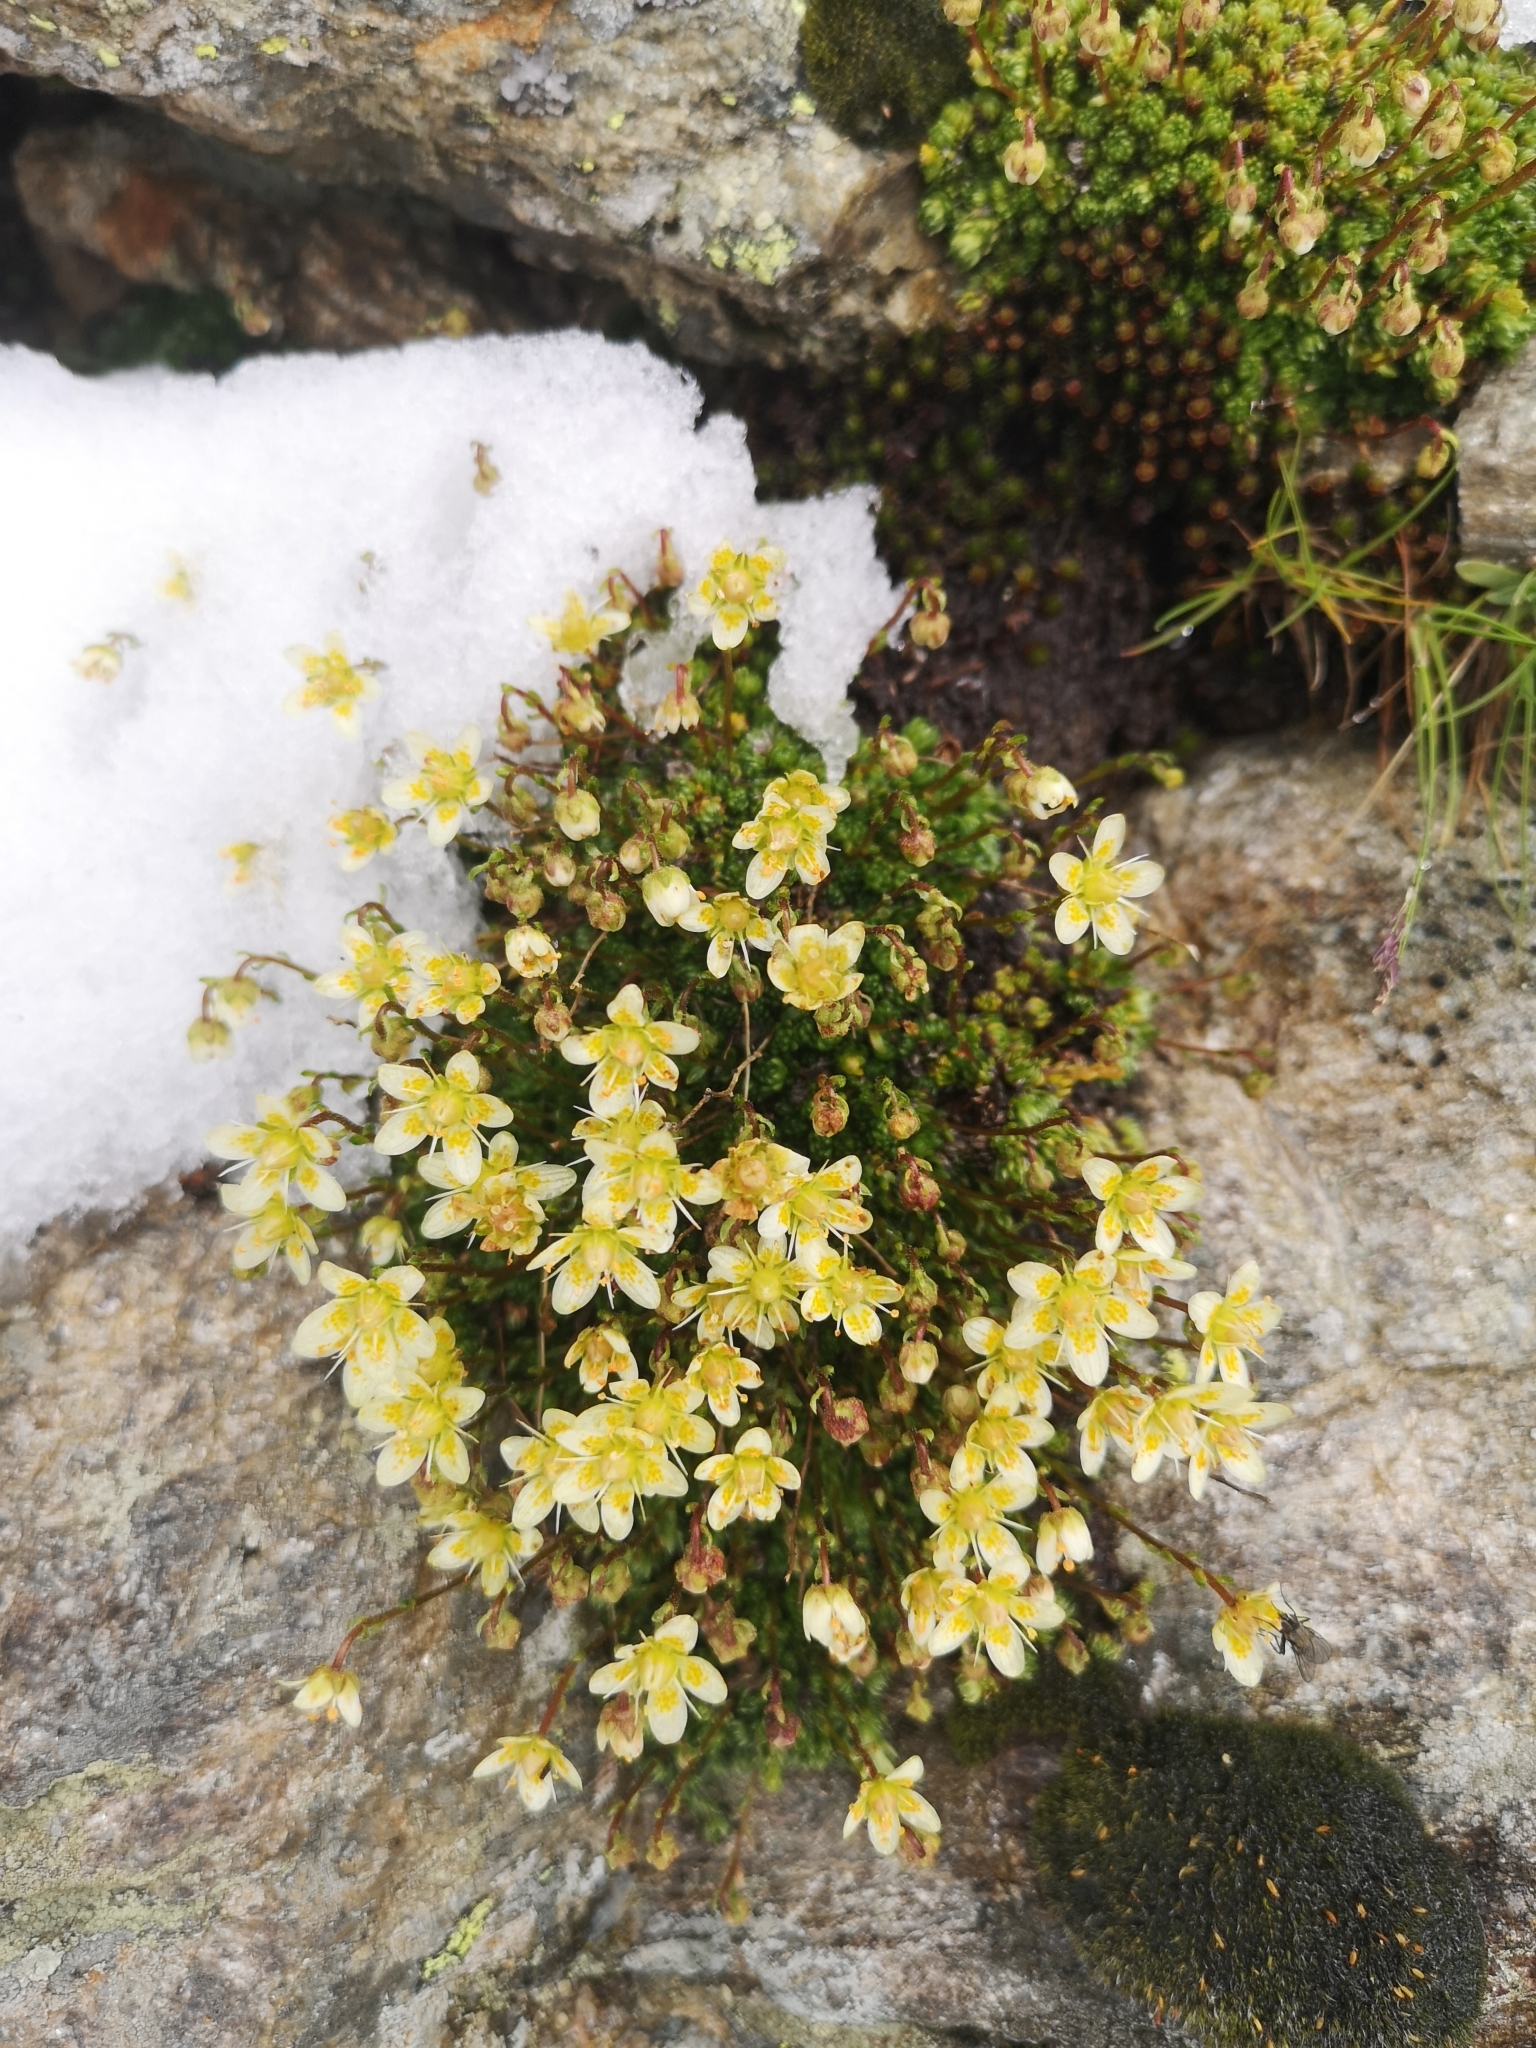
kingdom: Plantae
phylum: Tracheophyta
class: Magnoliopsida
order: Saxifragales
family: Saxifragaceae
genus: Saxifraga
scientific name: Saxifraga bryoides
